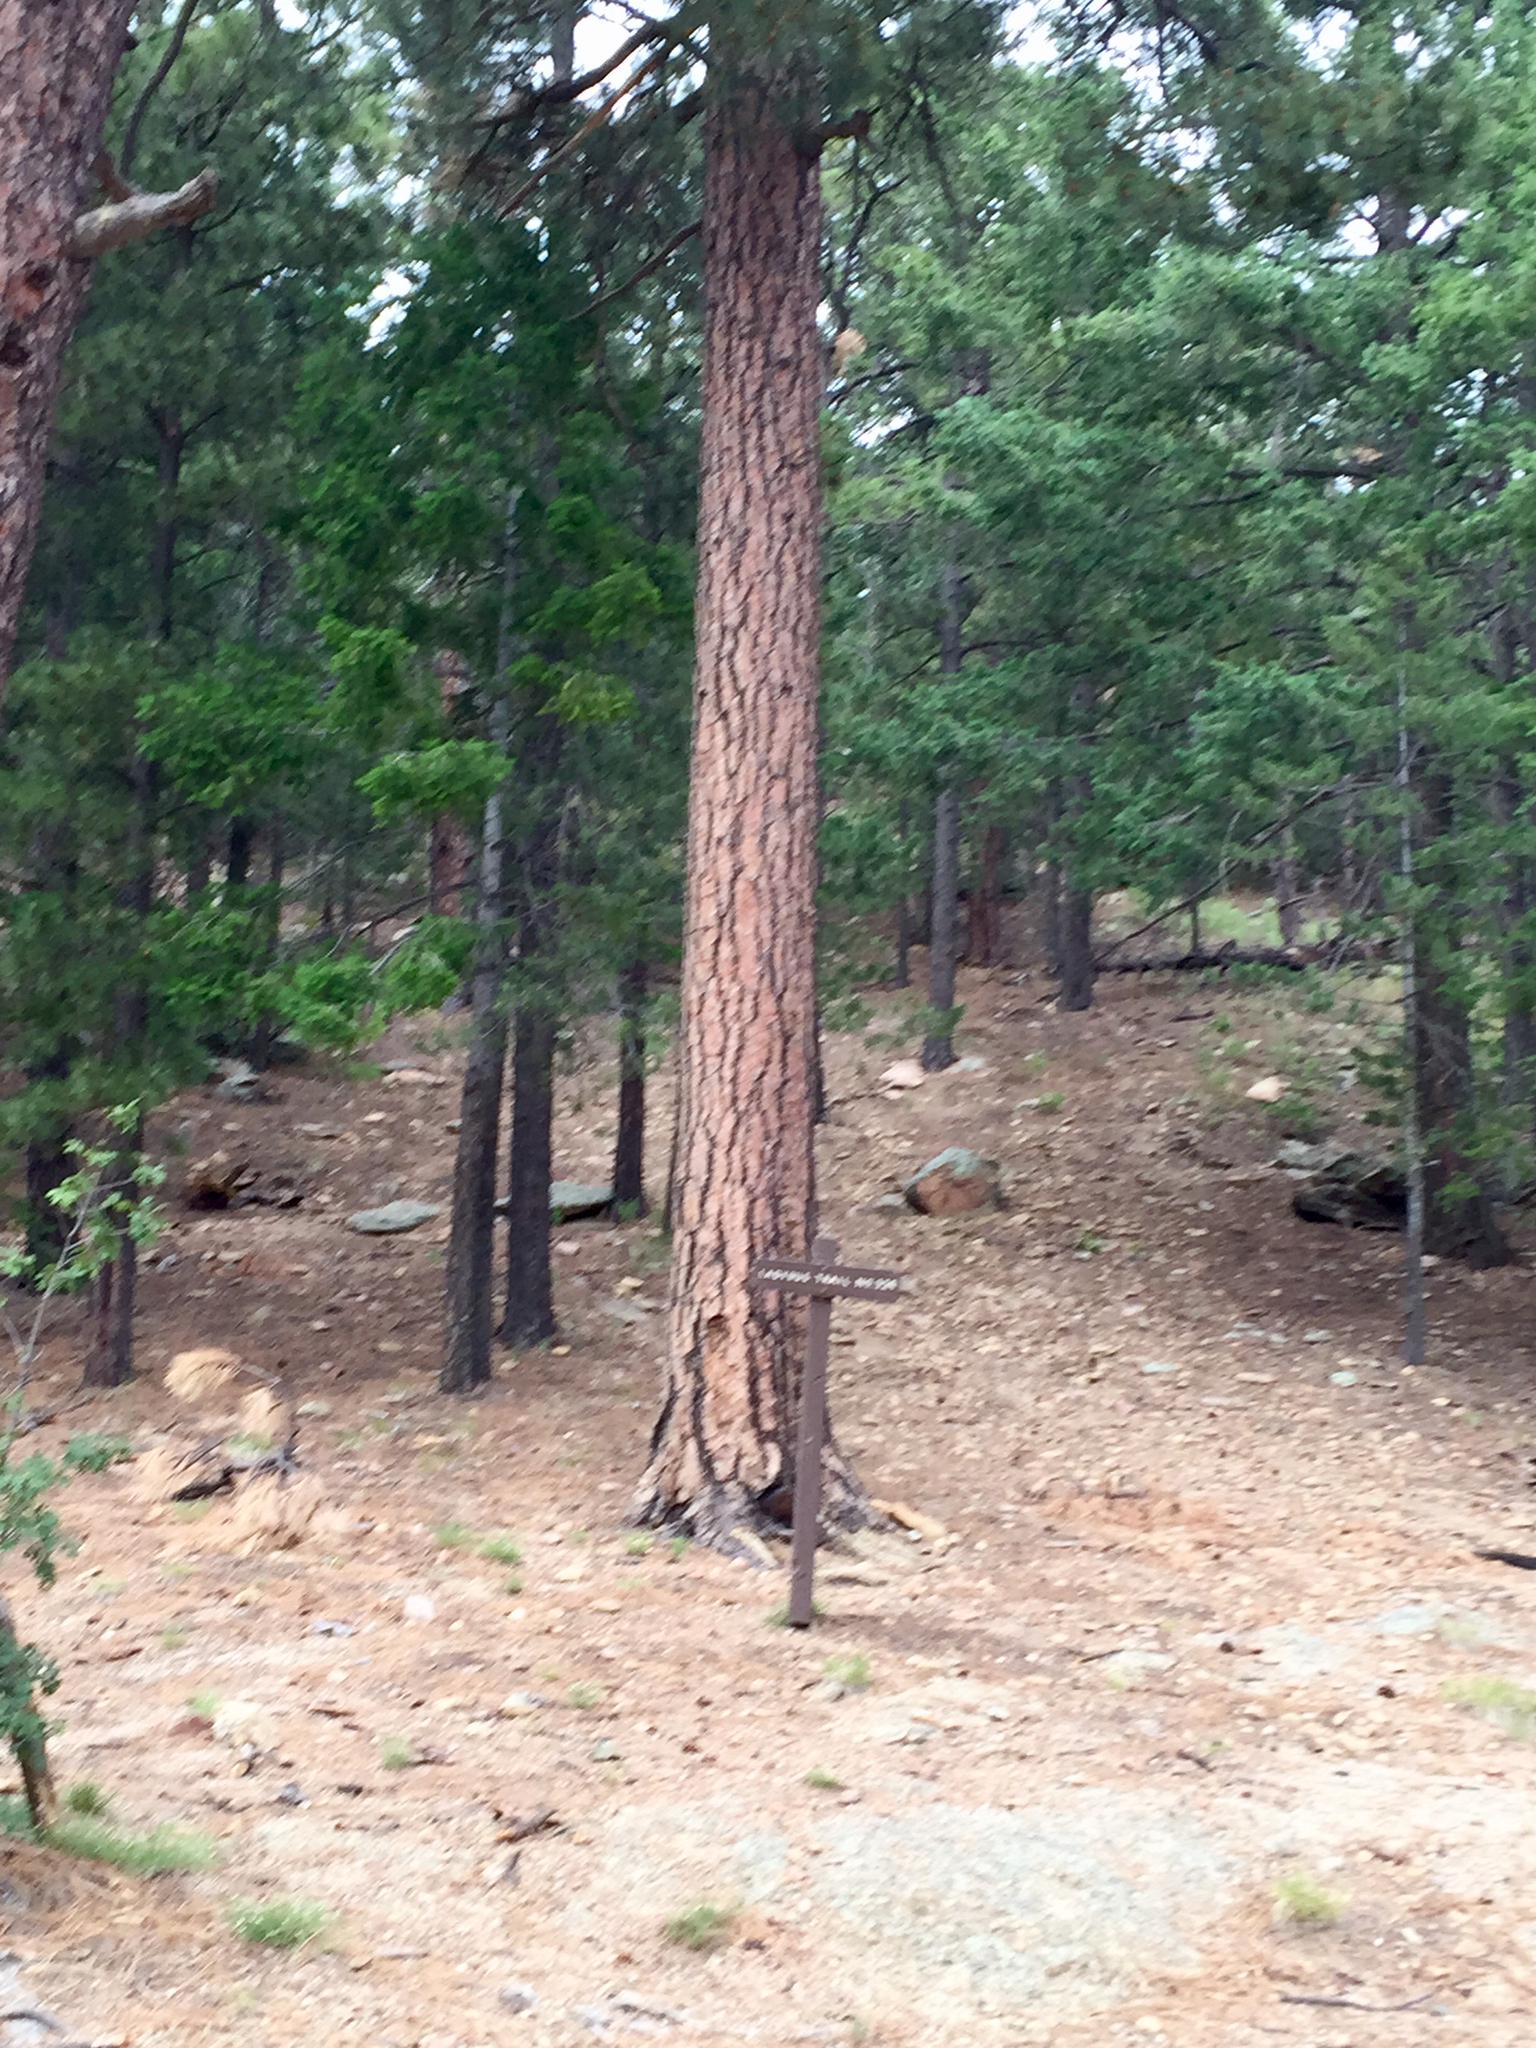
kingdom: Plantae
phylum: Tracheophyta
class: Pinopsida
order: Pinales
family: Pinaceae
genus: Pinus
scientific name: Pinus ponderosa
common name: Western yellow-pine
